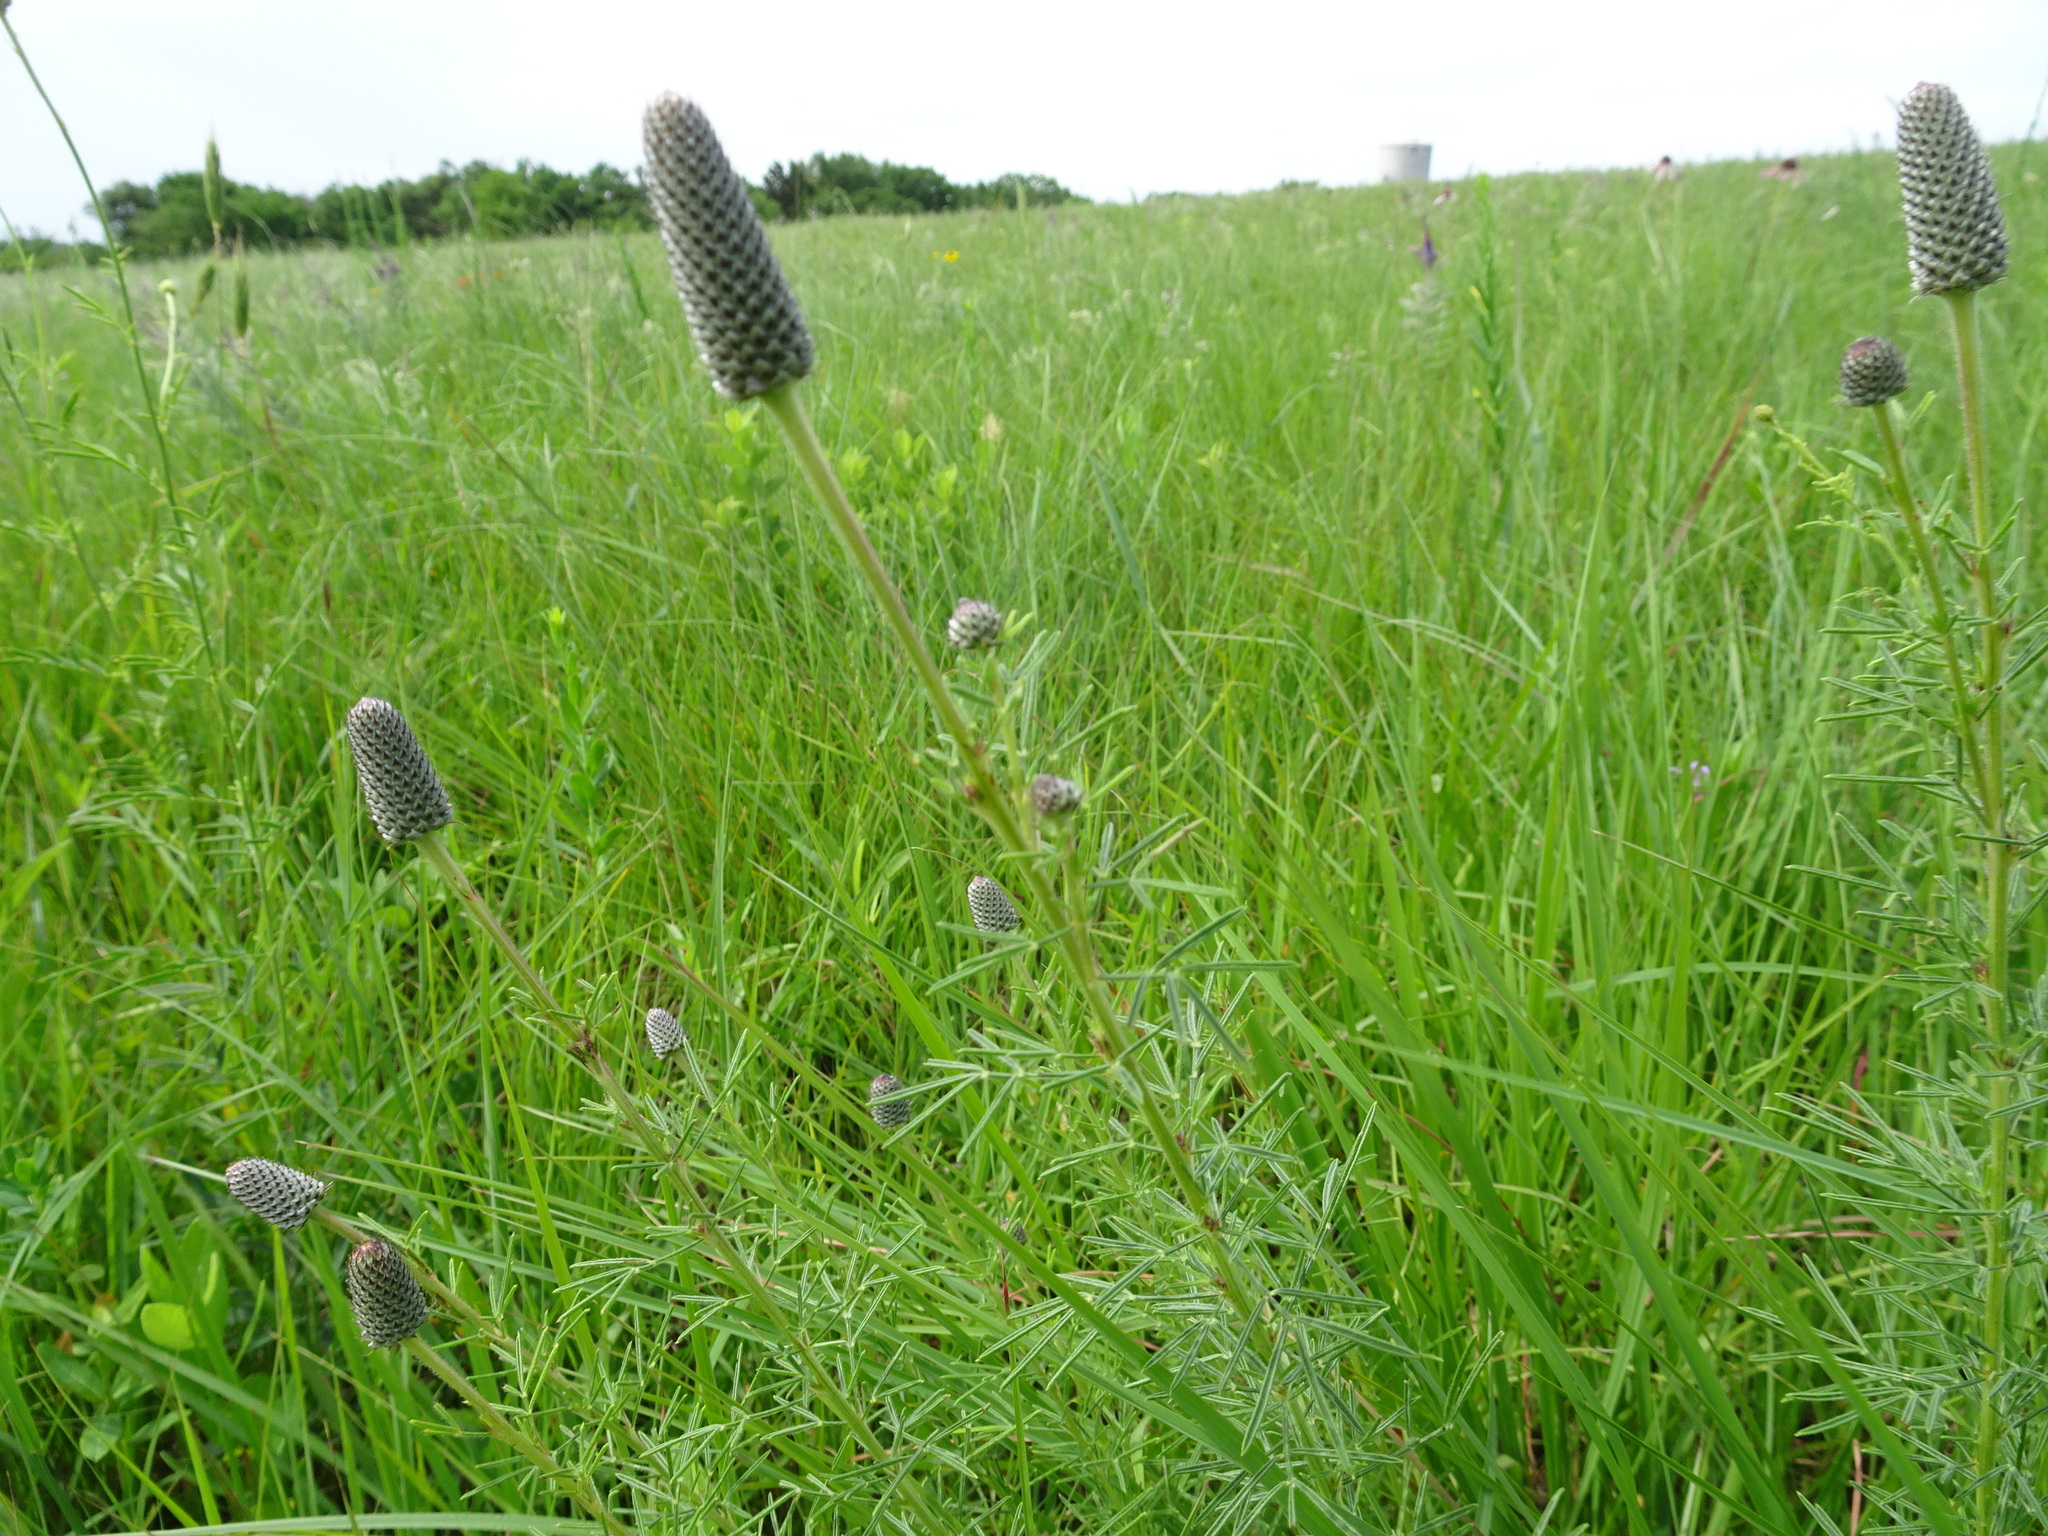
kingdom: Plantae
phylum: Tracheophyta
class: Magnoliopsida
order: Fabales
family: Fabaceae
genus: Dalea
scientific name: Dalea purpurea
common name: Purple prairie-clover
